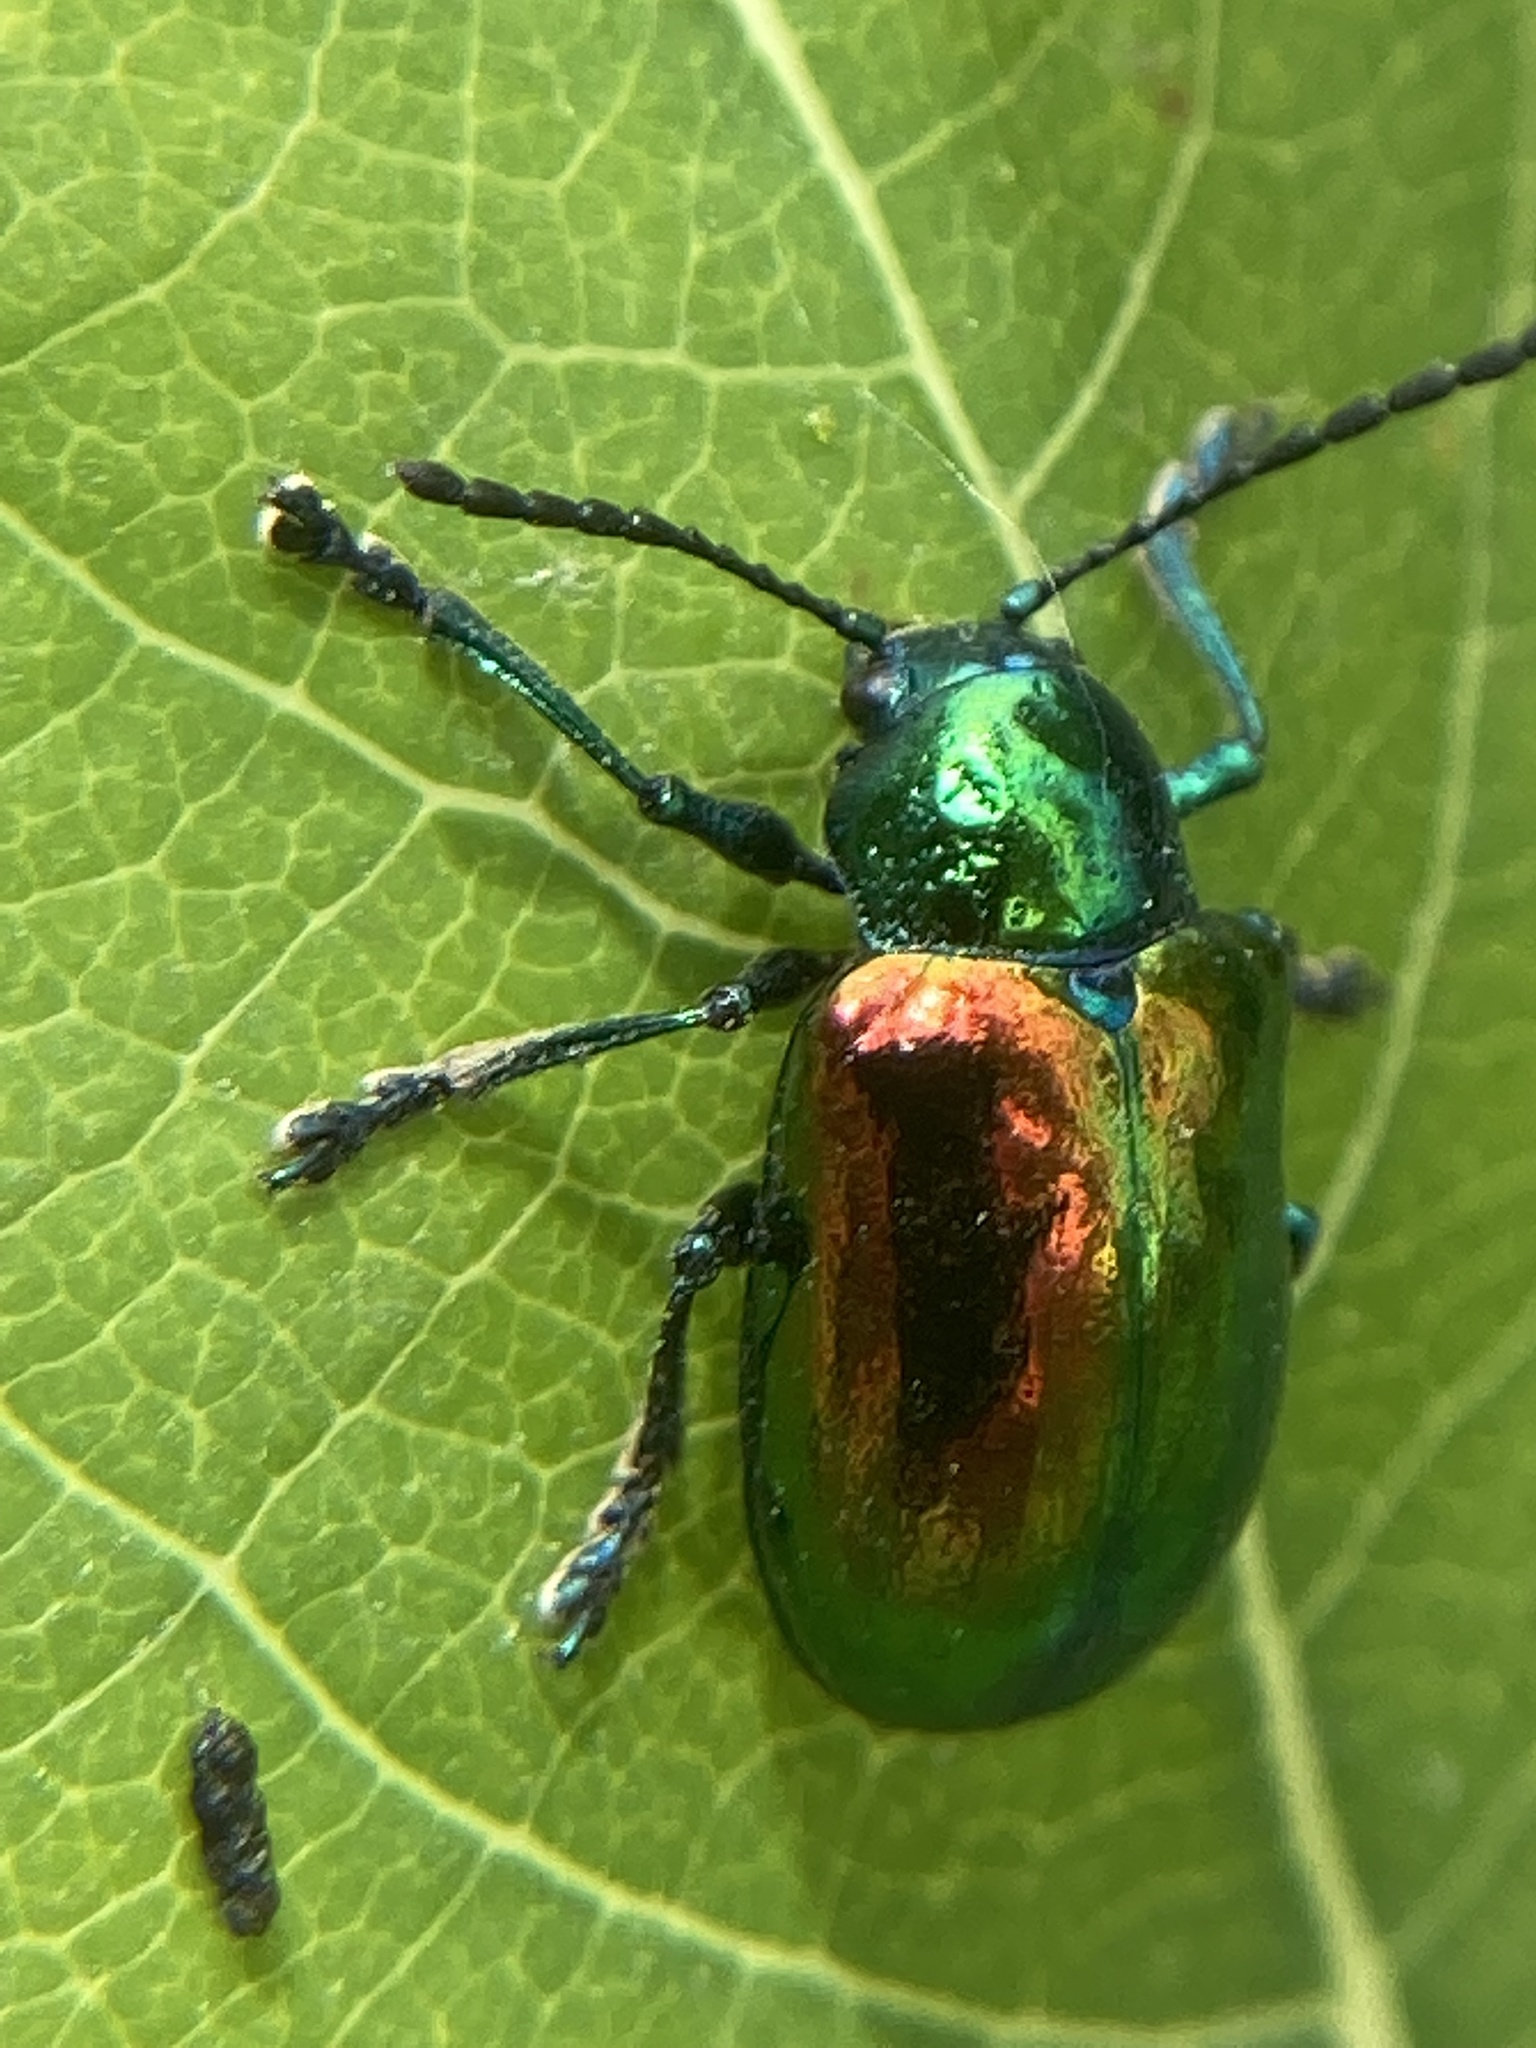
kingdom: Animalia
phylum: Arthropoda
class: Insecta
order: Coleoptera
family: Chrysomelidae
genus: Chrysochus
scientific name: Chrysochus auratus
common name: Dogbane leaf beetle
